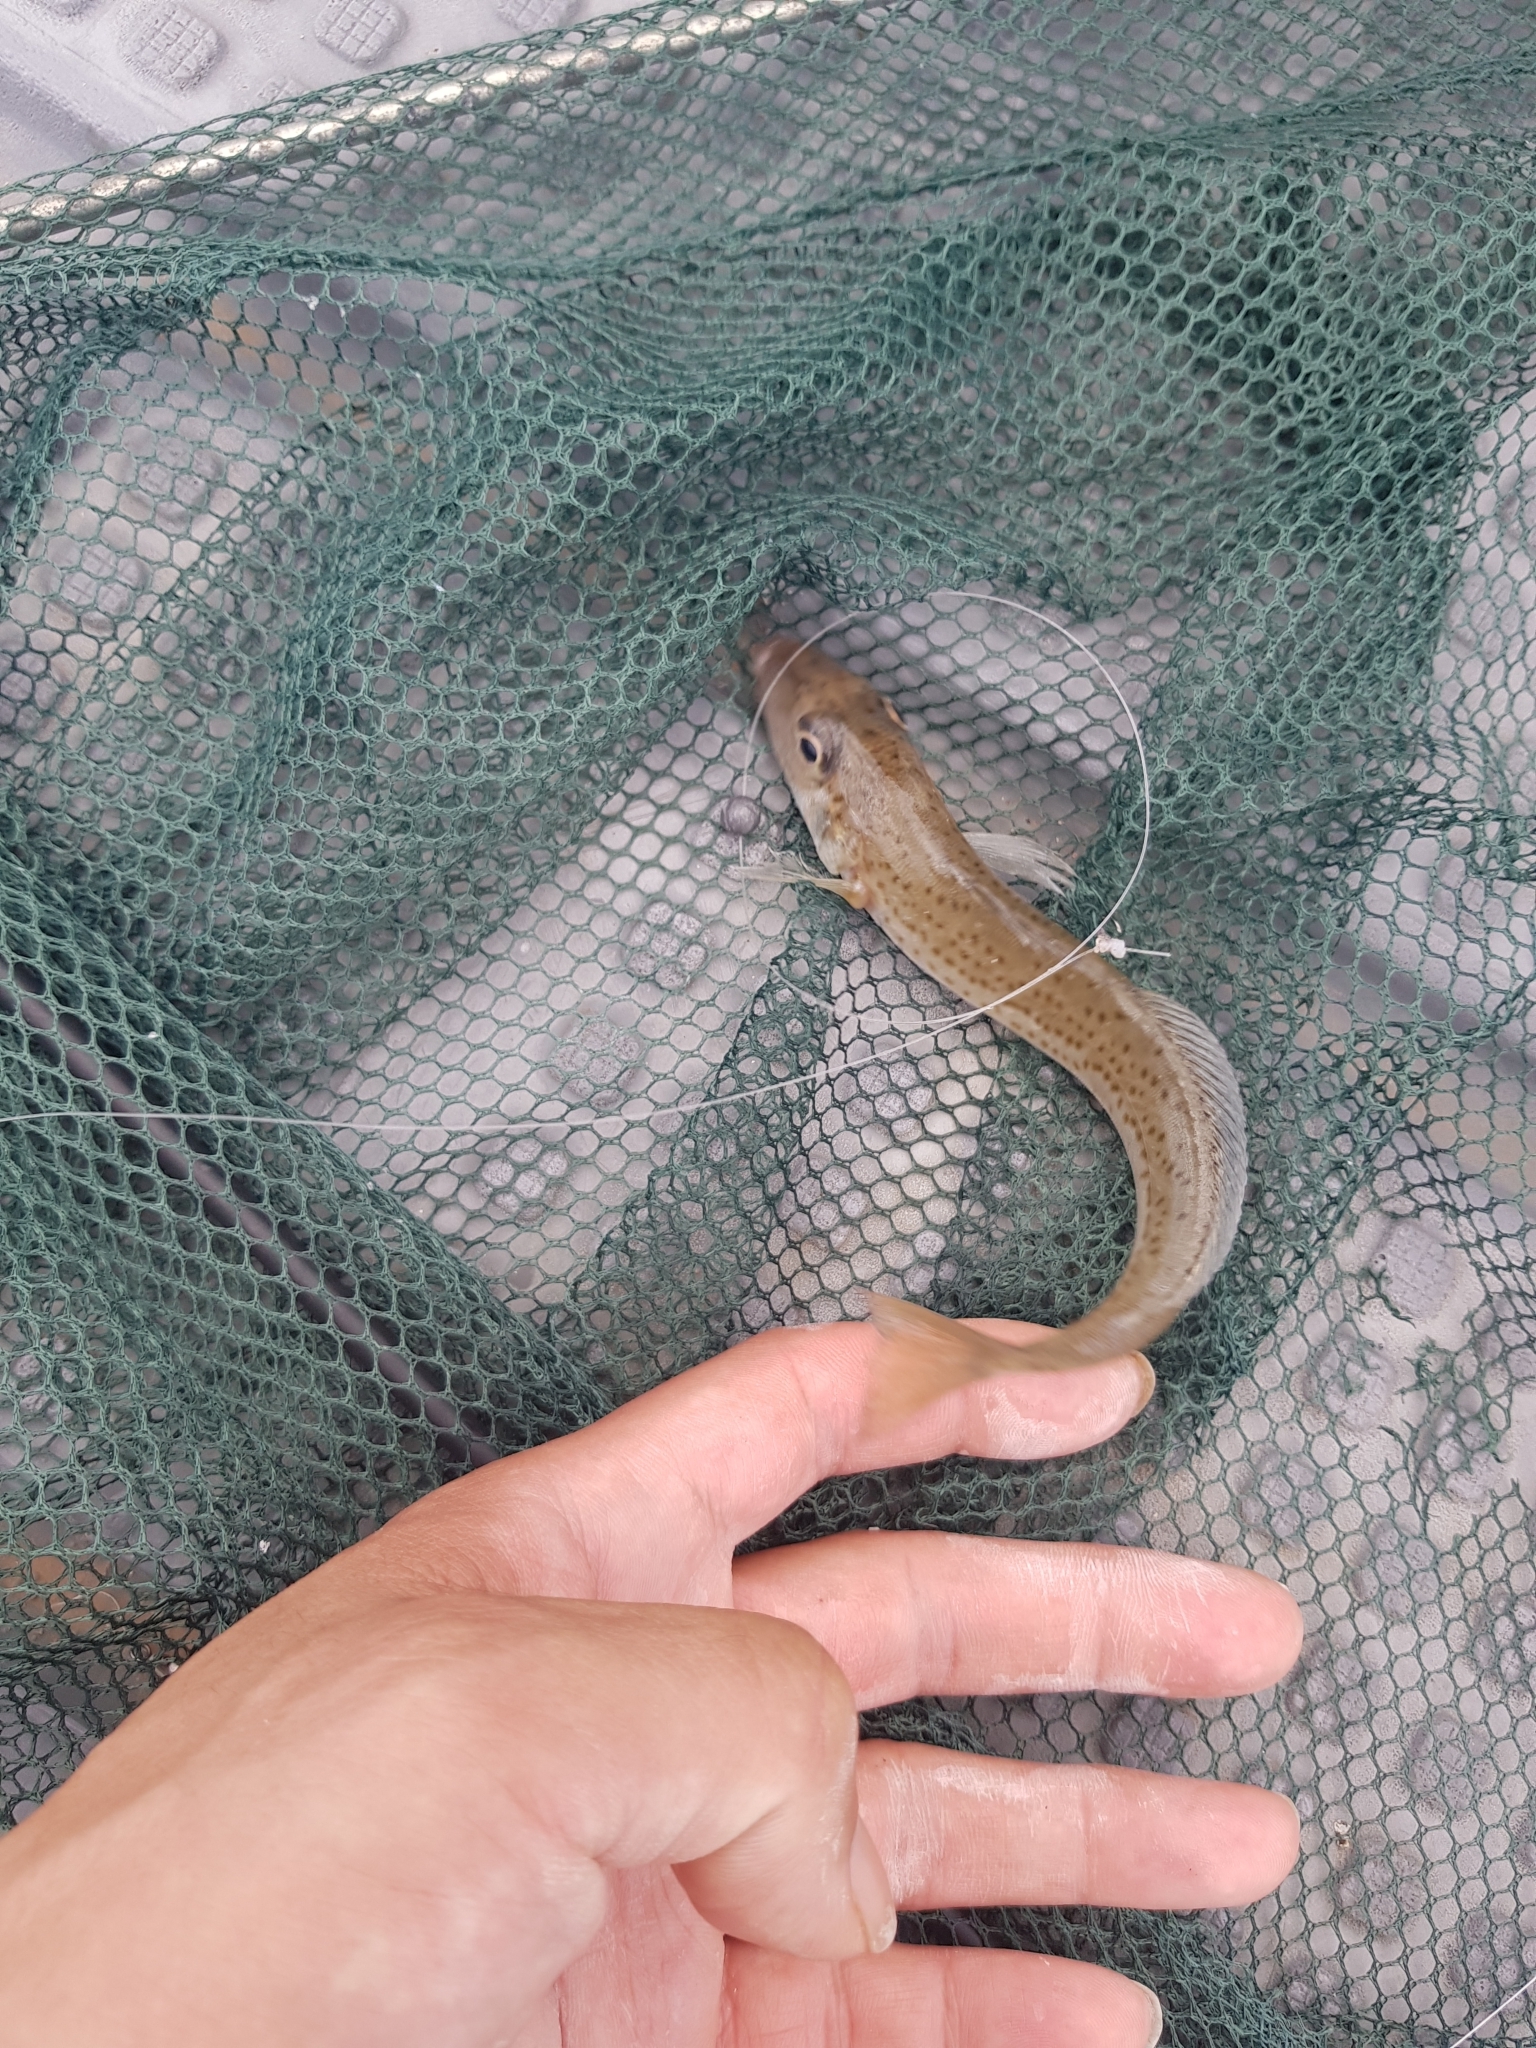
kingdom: Animalia
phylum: Chordata
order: Perciformes
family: Sillaginidae
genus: Sillaginodes
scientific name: Sillaginodes punctatus
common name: King george whiting
